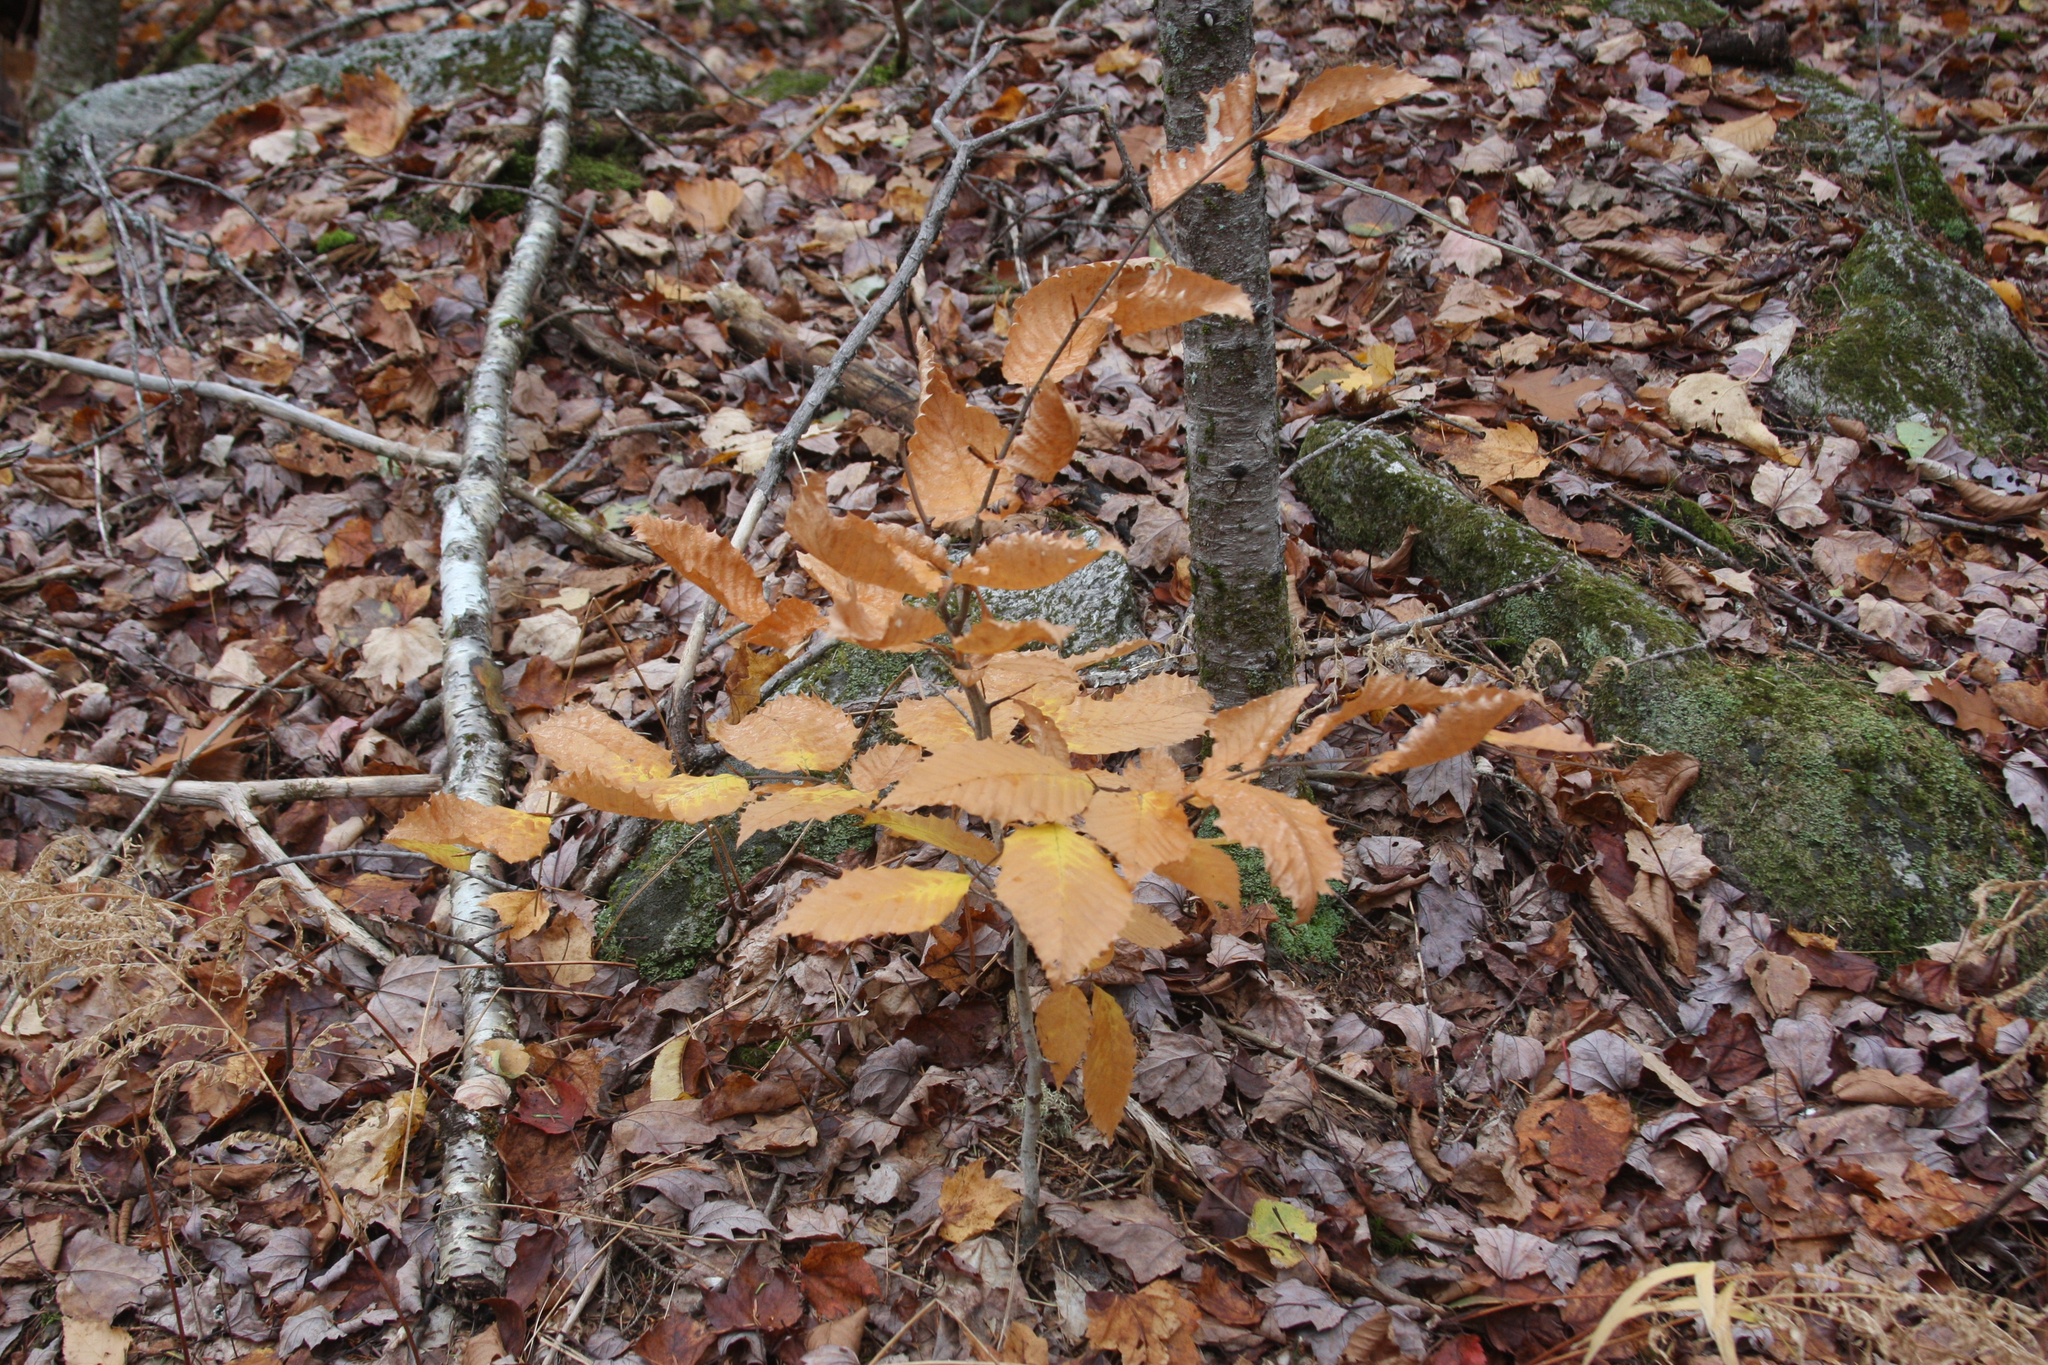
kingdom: Plantae
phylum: Tracheophyta
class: Magnoliopsida
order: Fagales
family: Fagaceae
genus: Fagus
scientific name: Fagus grandifolia
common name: American beech
